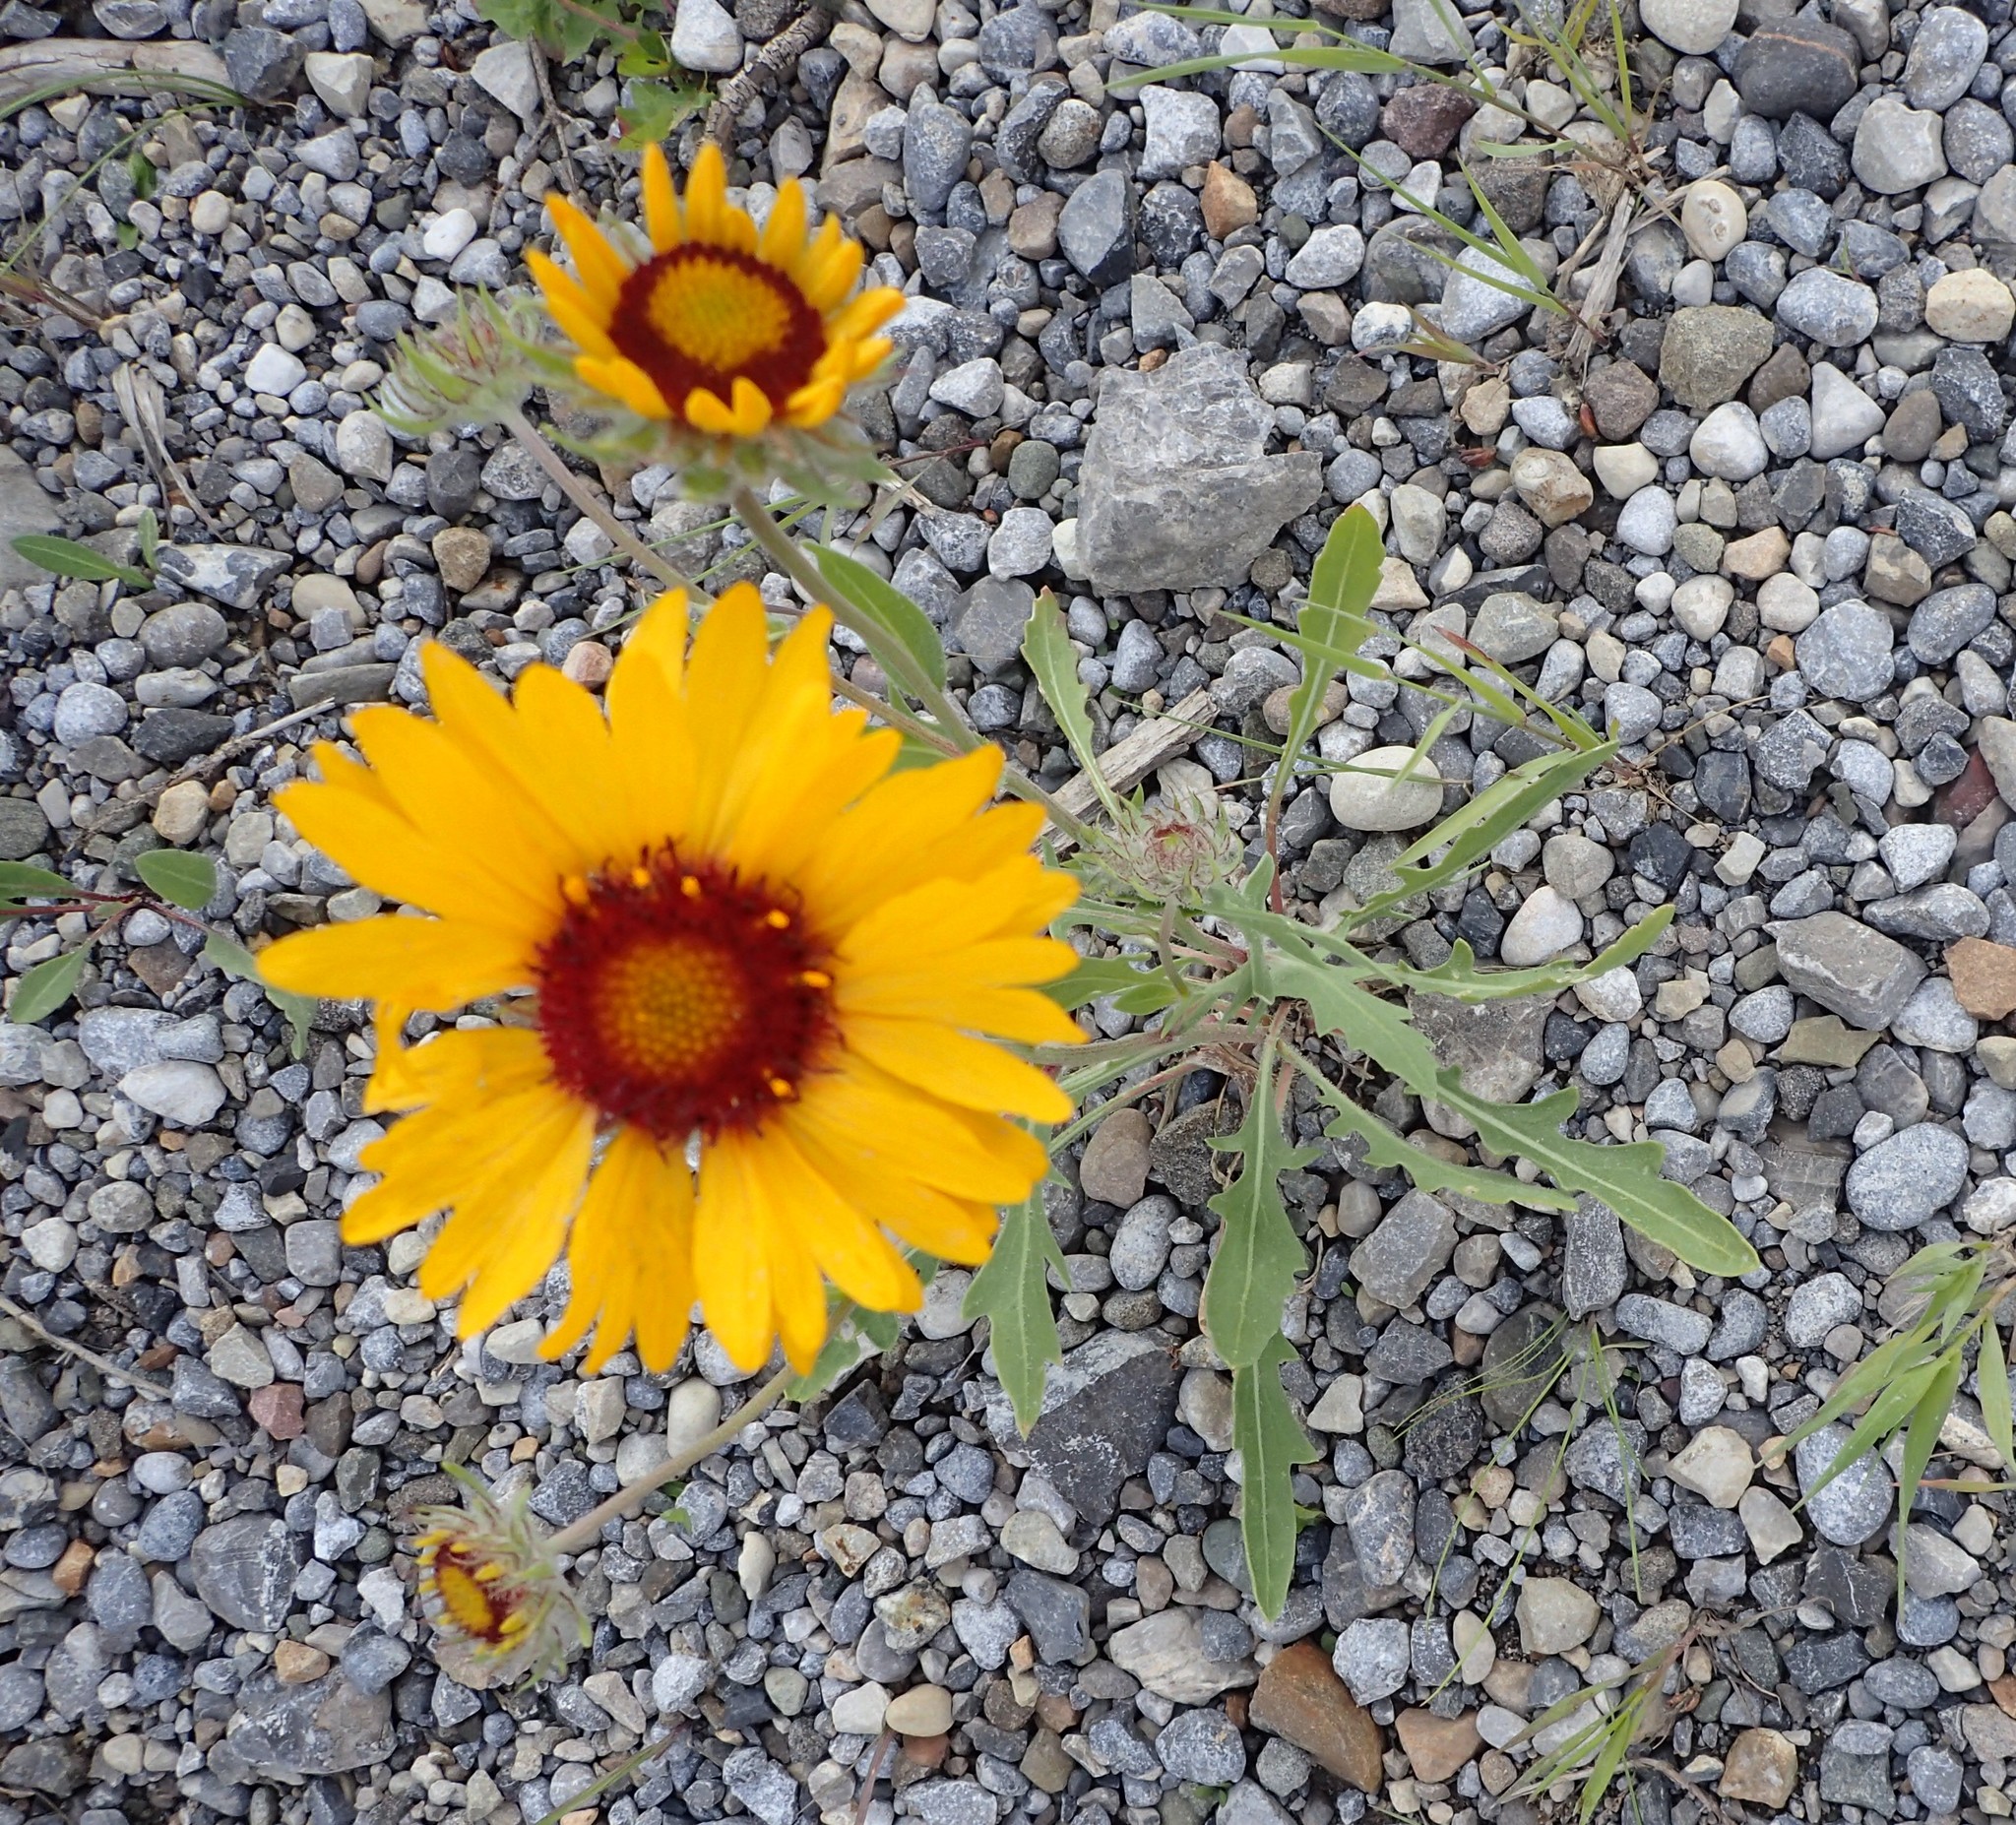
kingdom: Plantae
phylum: Tracheophyta
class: Magnoliopsida
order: Asterales
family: Asteraceae
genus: Gaillardia
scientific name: Gaillardia aristata
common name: Blanket-flower
